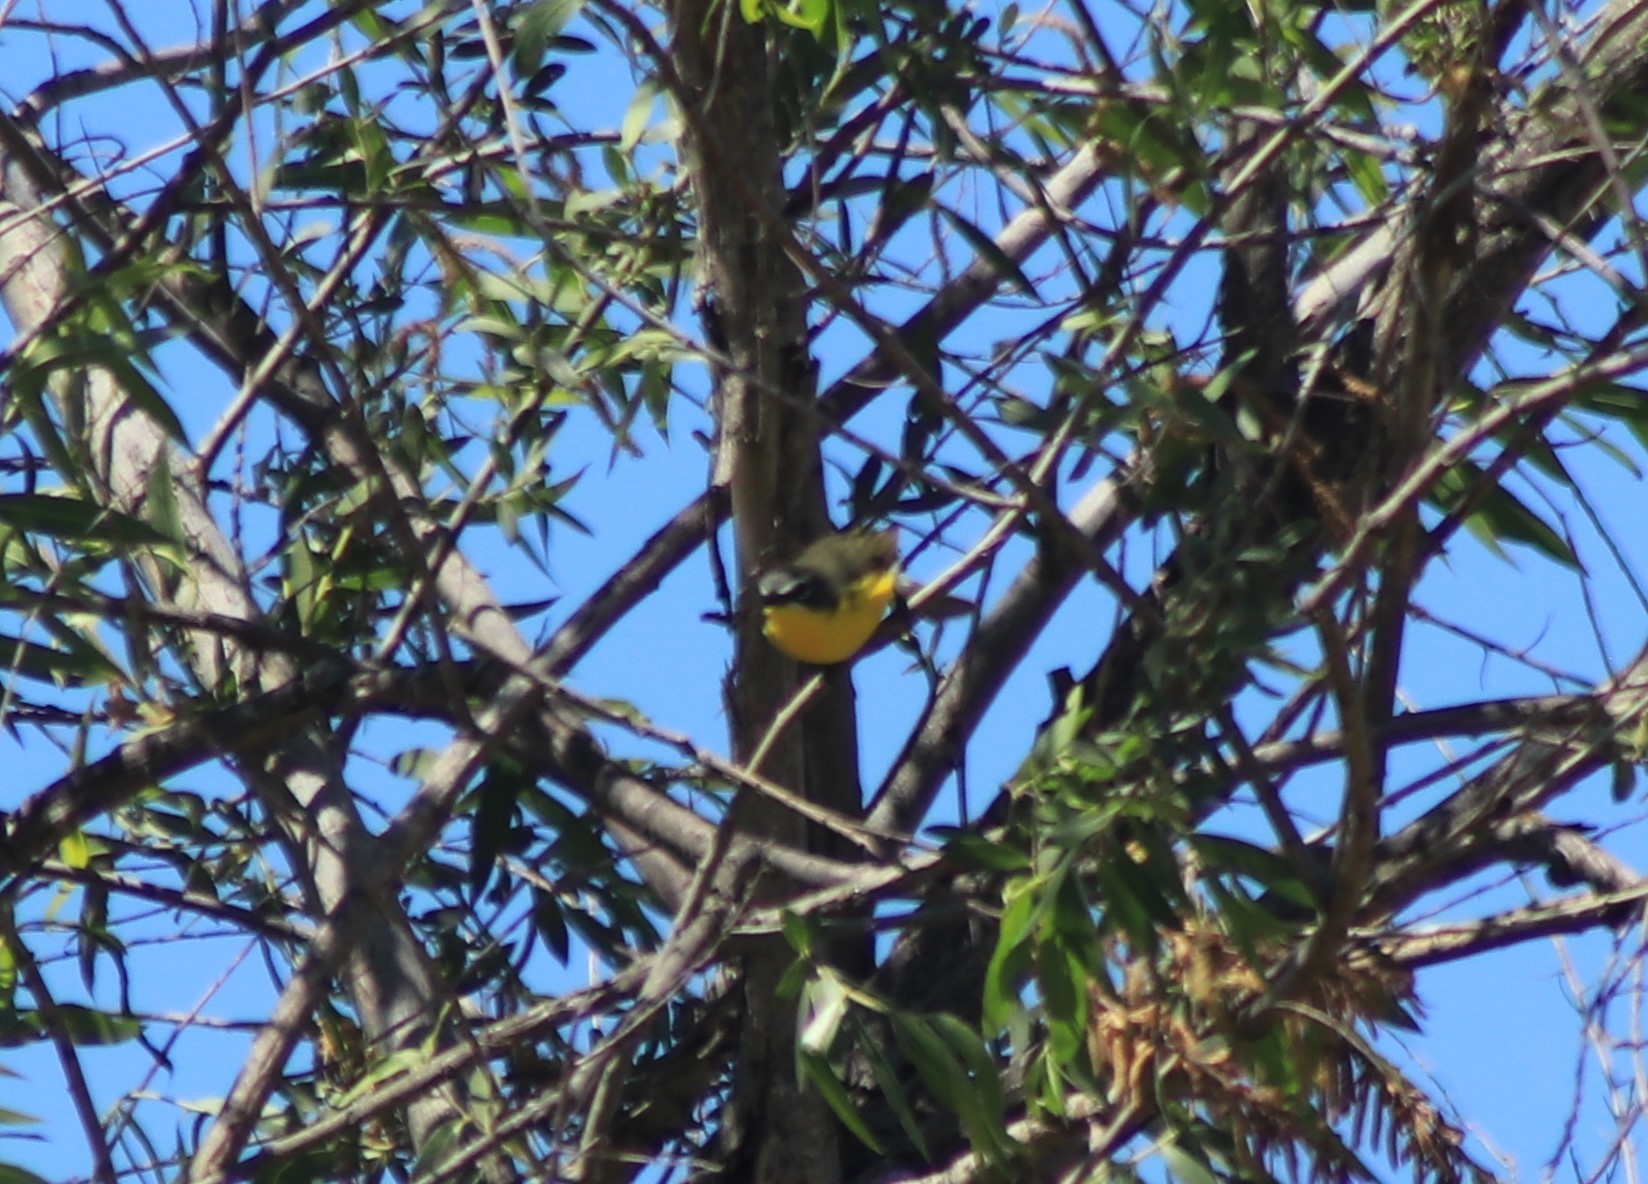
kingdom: Animalia
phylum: Chordata
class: Aves
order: Passeriformes
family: Parulidae
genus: Icteria
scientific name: Icteria virens
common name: Yellow-breasted chat
